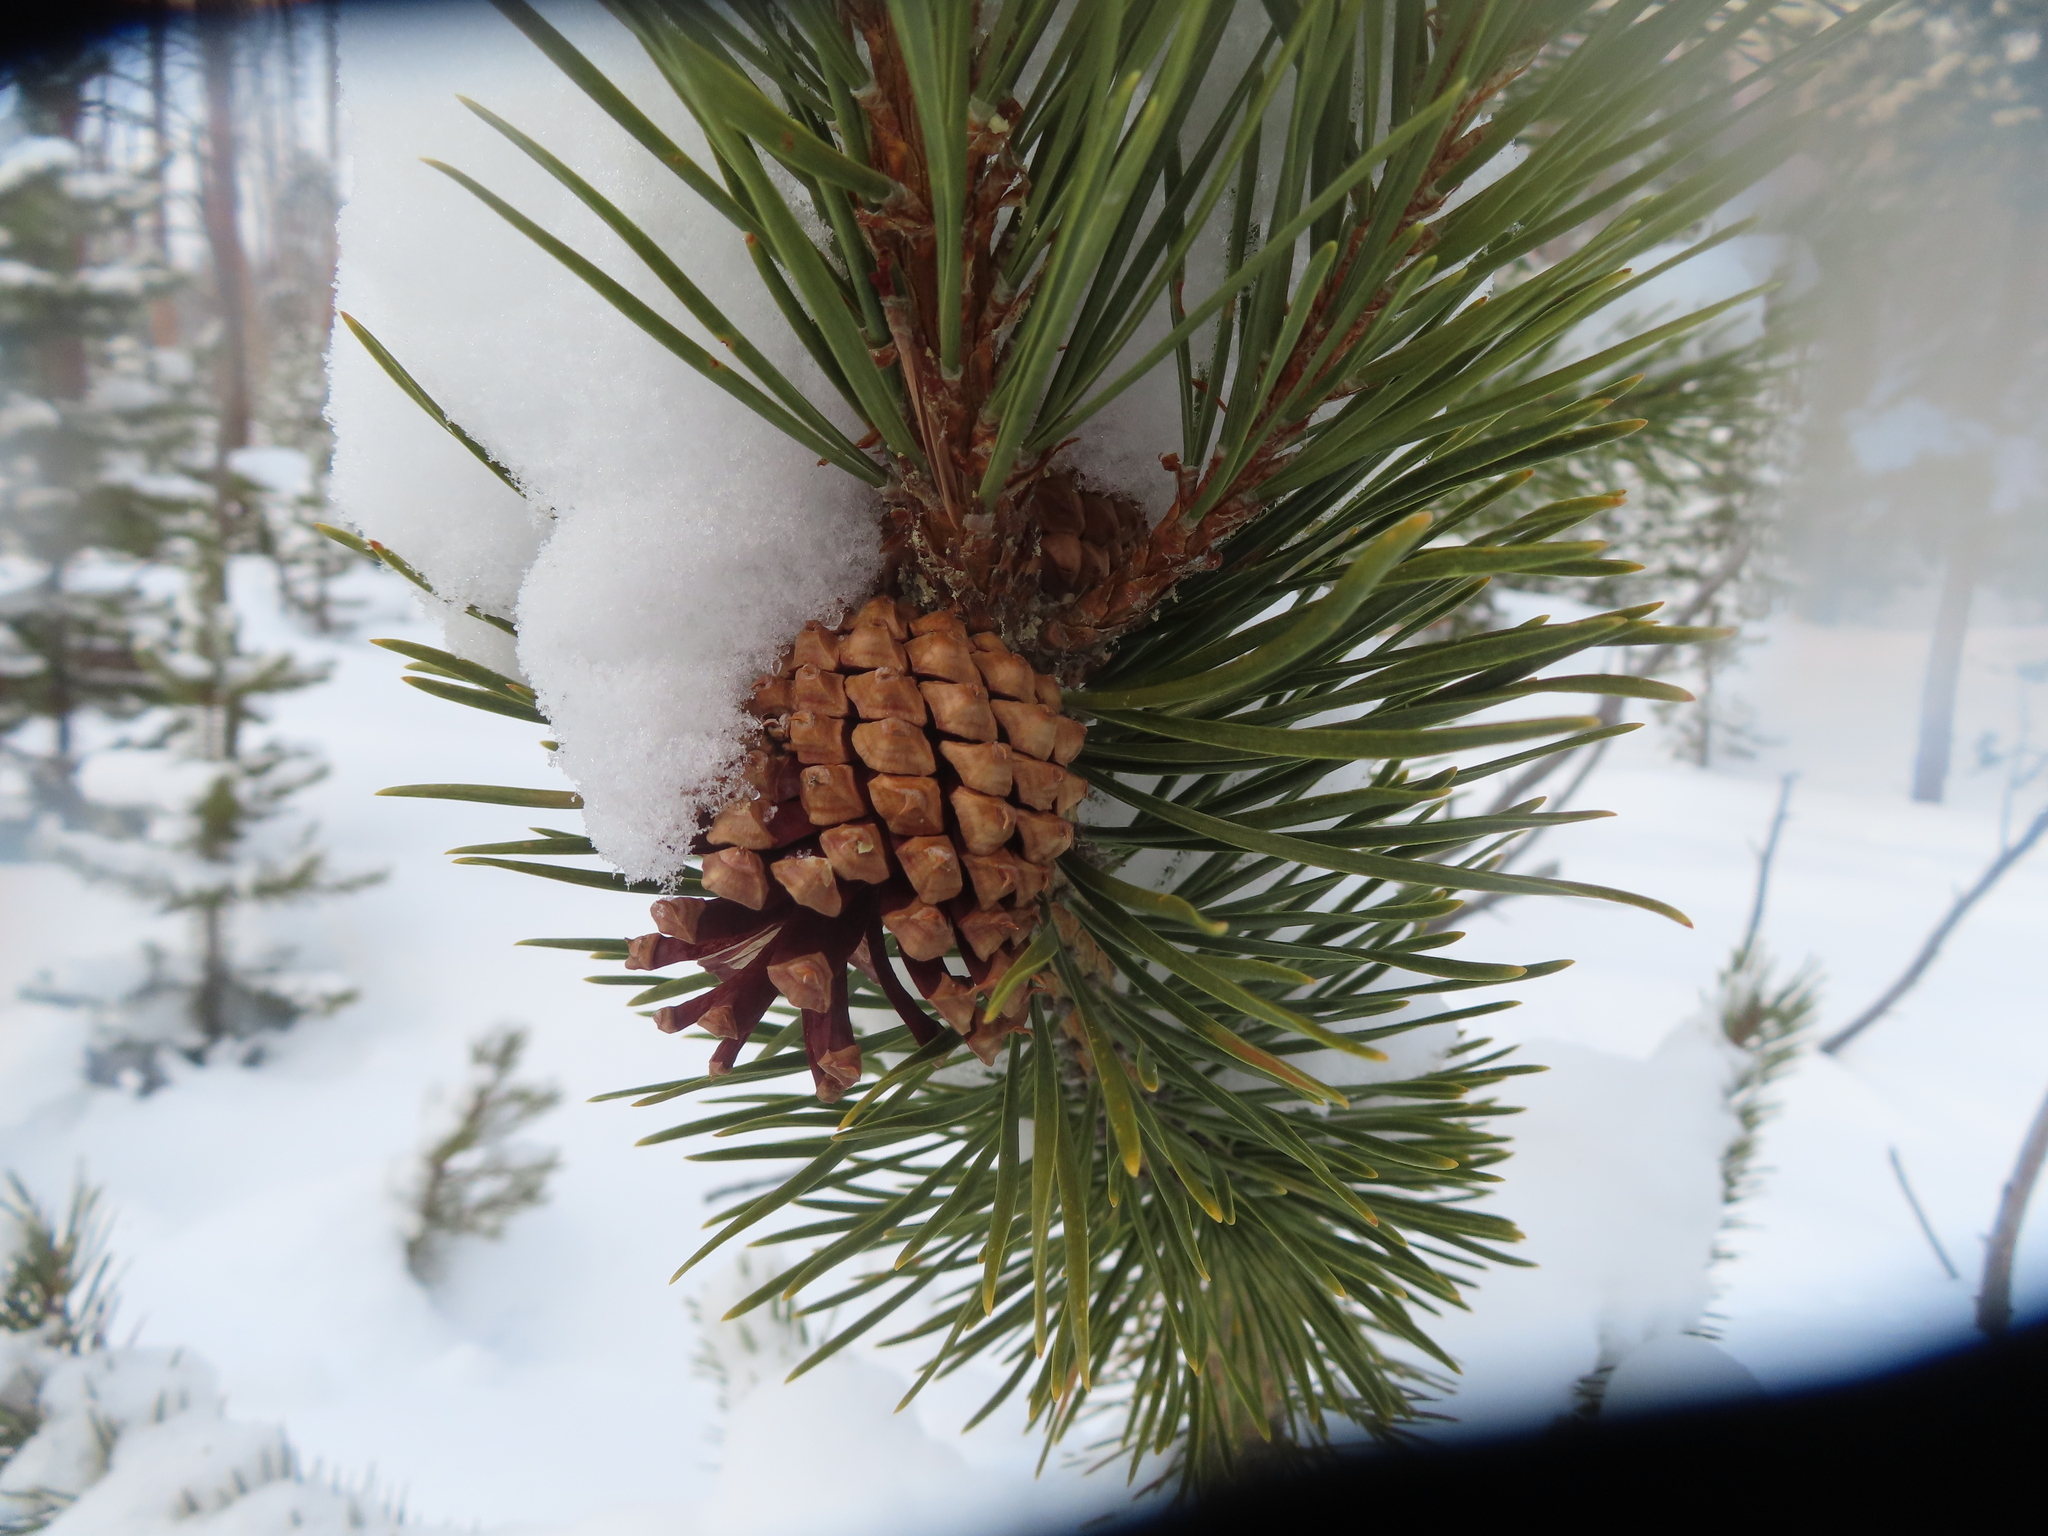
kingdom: Plantae
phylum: Tracheophyta
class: Pinopsida
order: Pinales
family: Pinaceae
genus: Pinus
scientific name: Pinus contorta
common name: Lodgepole pine
